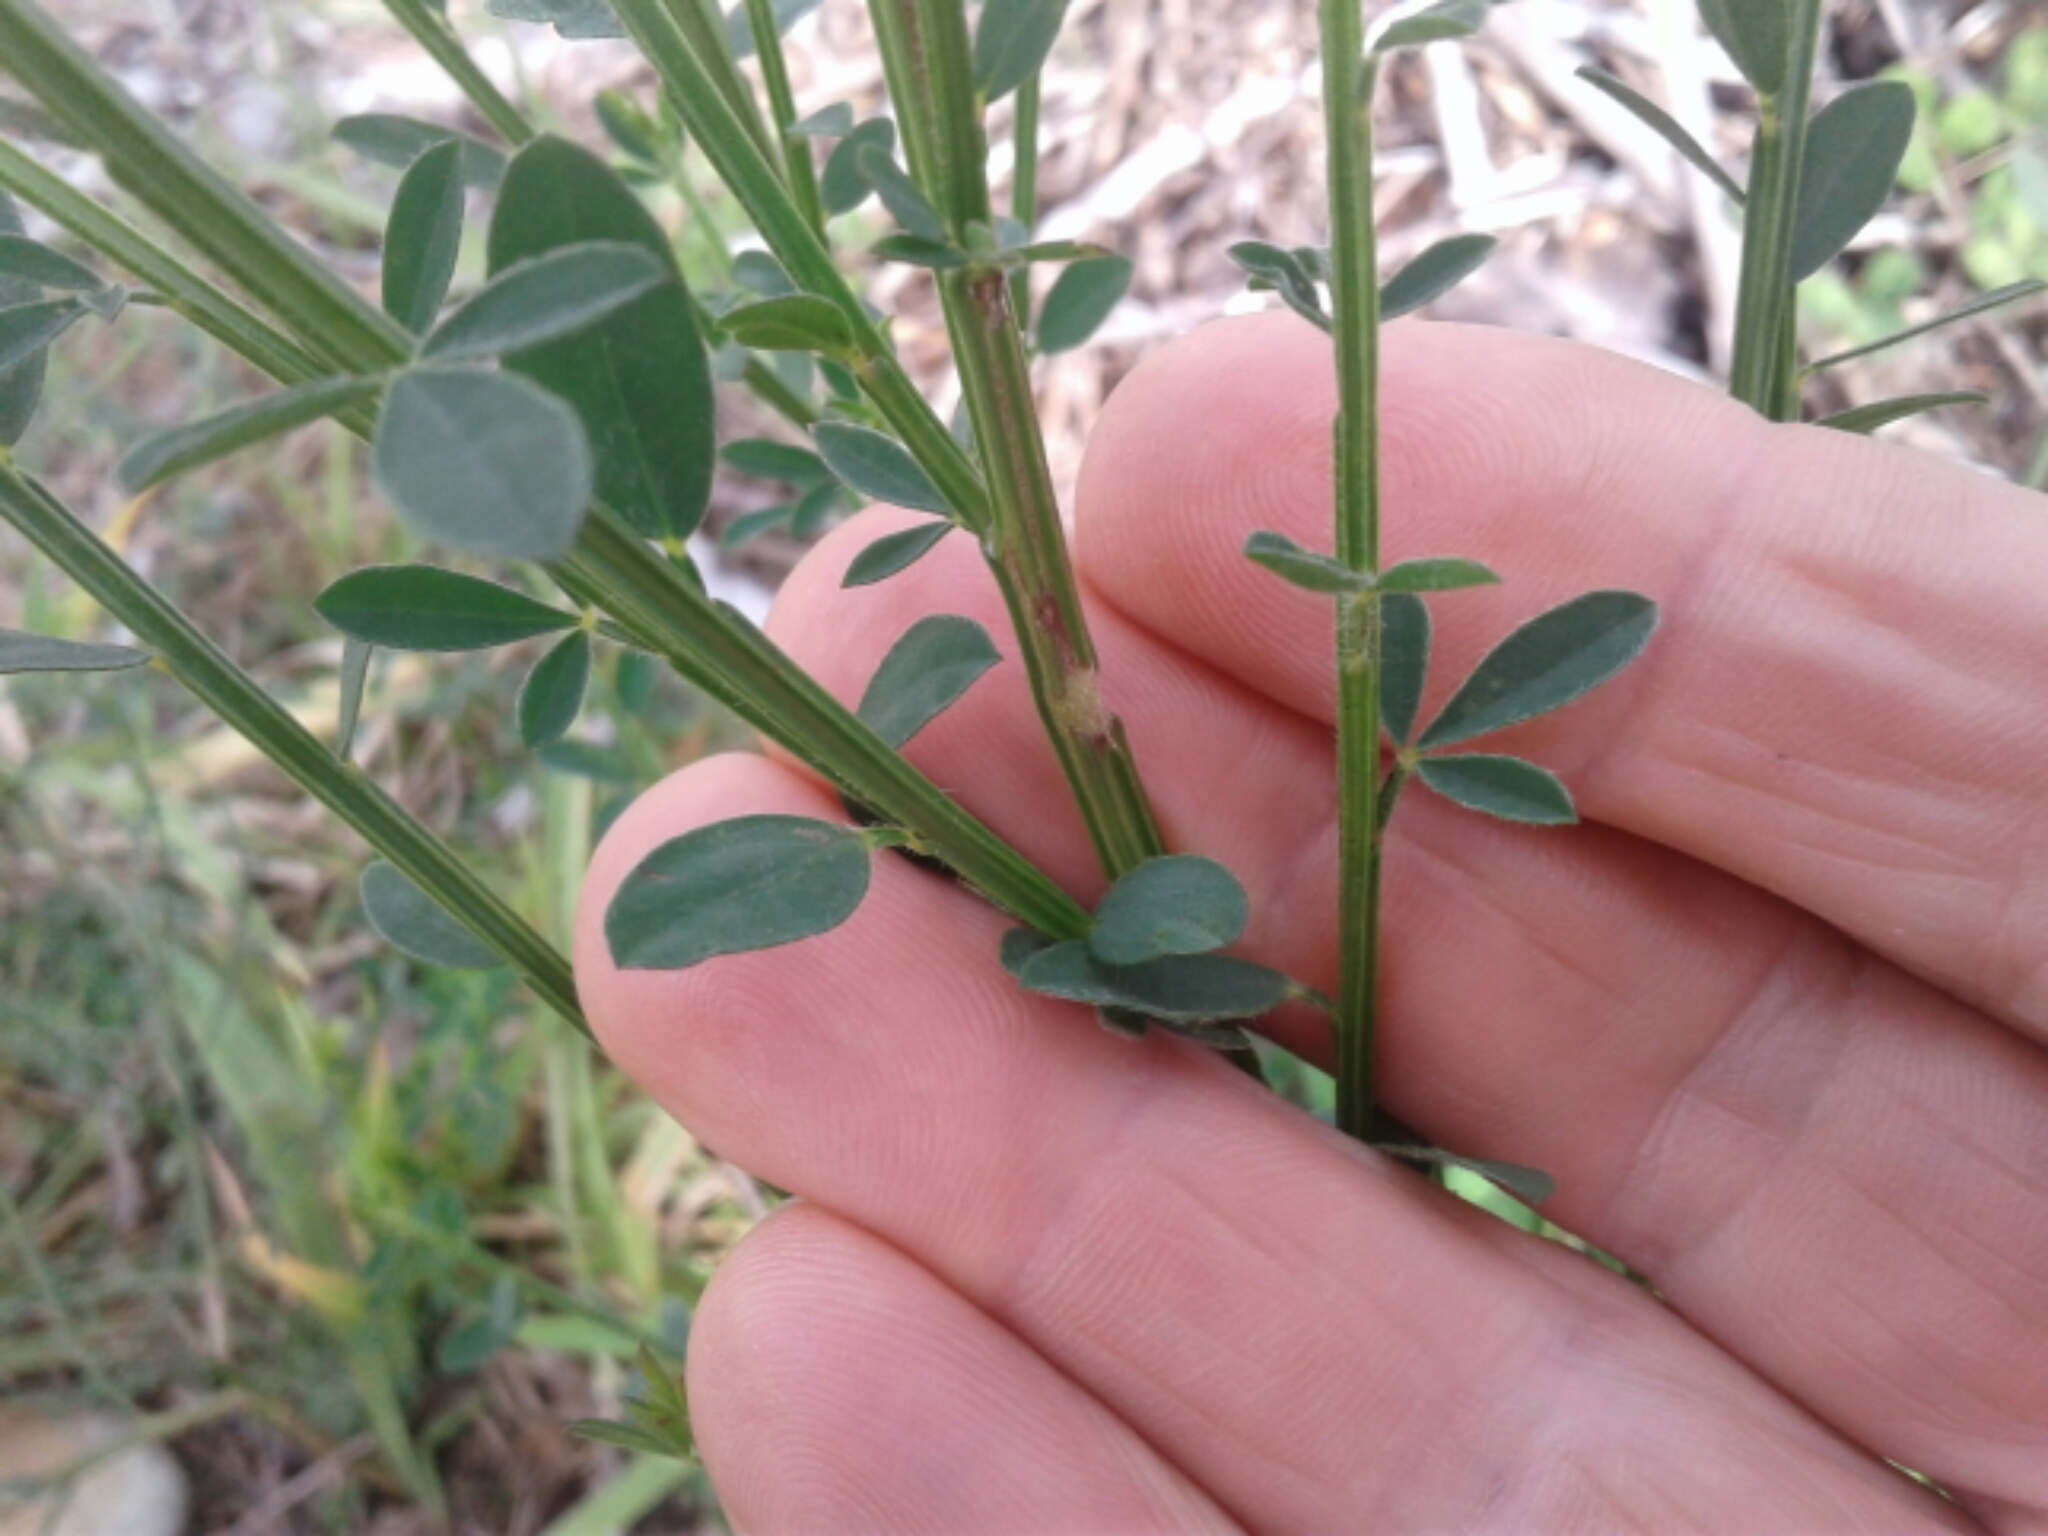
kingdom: Plantae
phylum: Tracheophyta
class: Magnoliopsida
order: Fabales
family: Fabaceae
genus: Cytisus
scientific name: Cytisus scoparius
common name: Scotch broom
